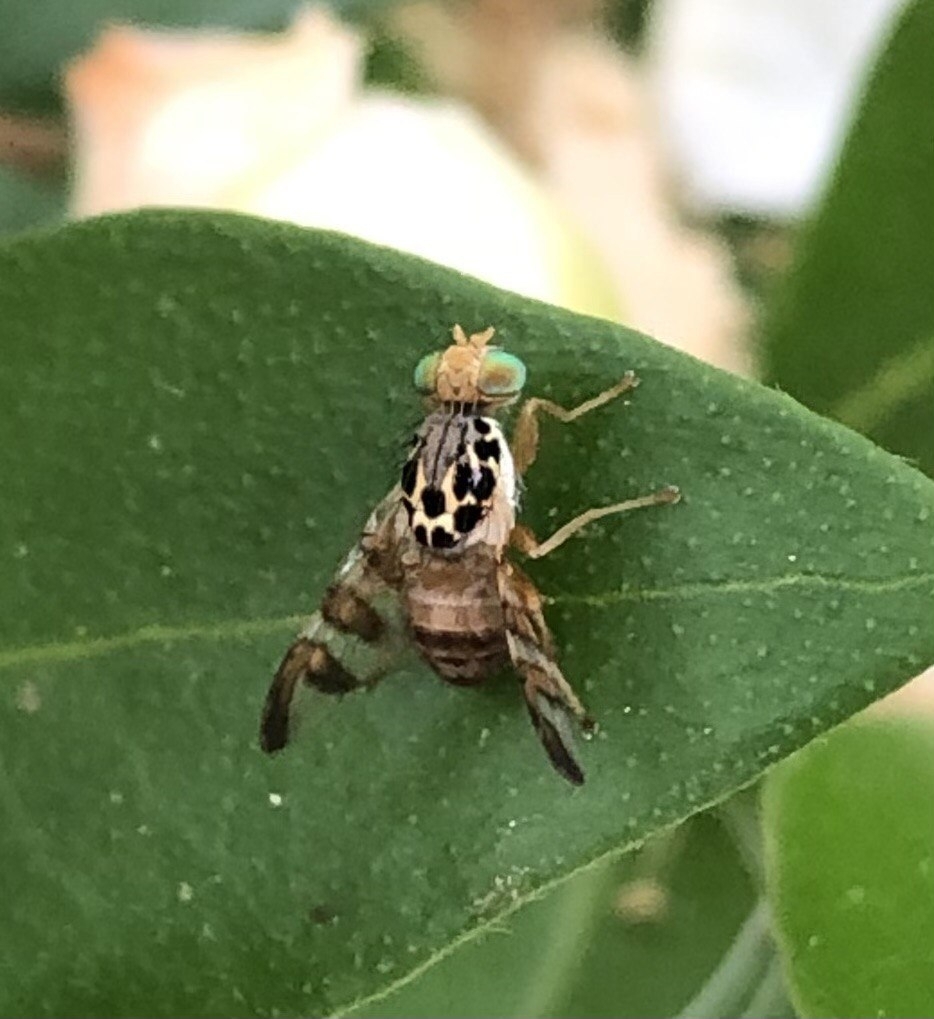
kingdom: Animalia
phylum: Arthropoda
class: Insecta
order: Diptera
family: Tephritidae
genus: Carpomya
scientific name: Carpomya schineri
